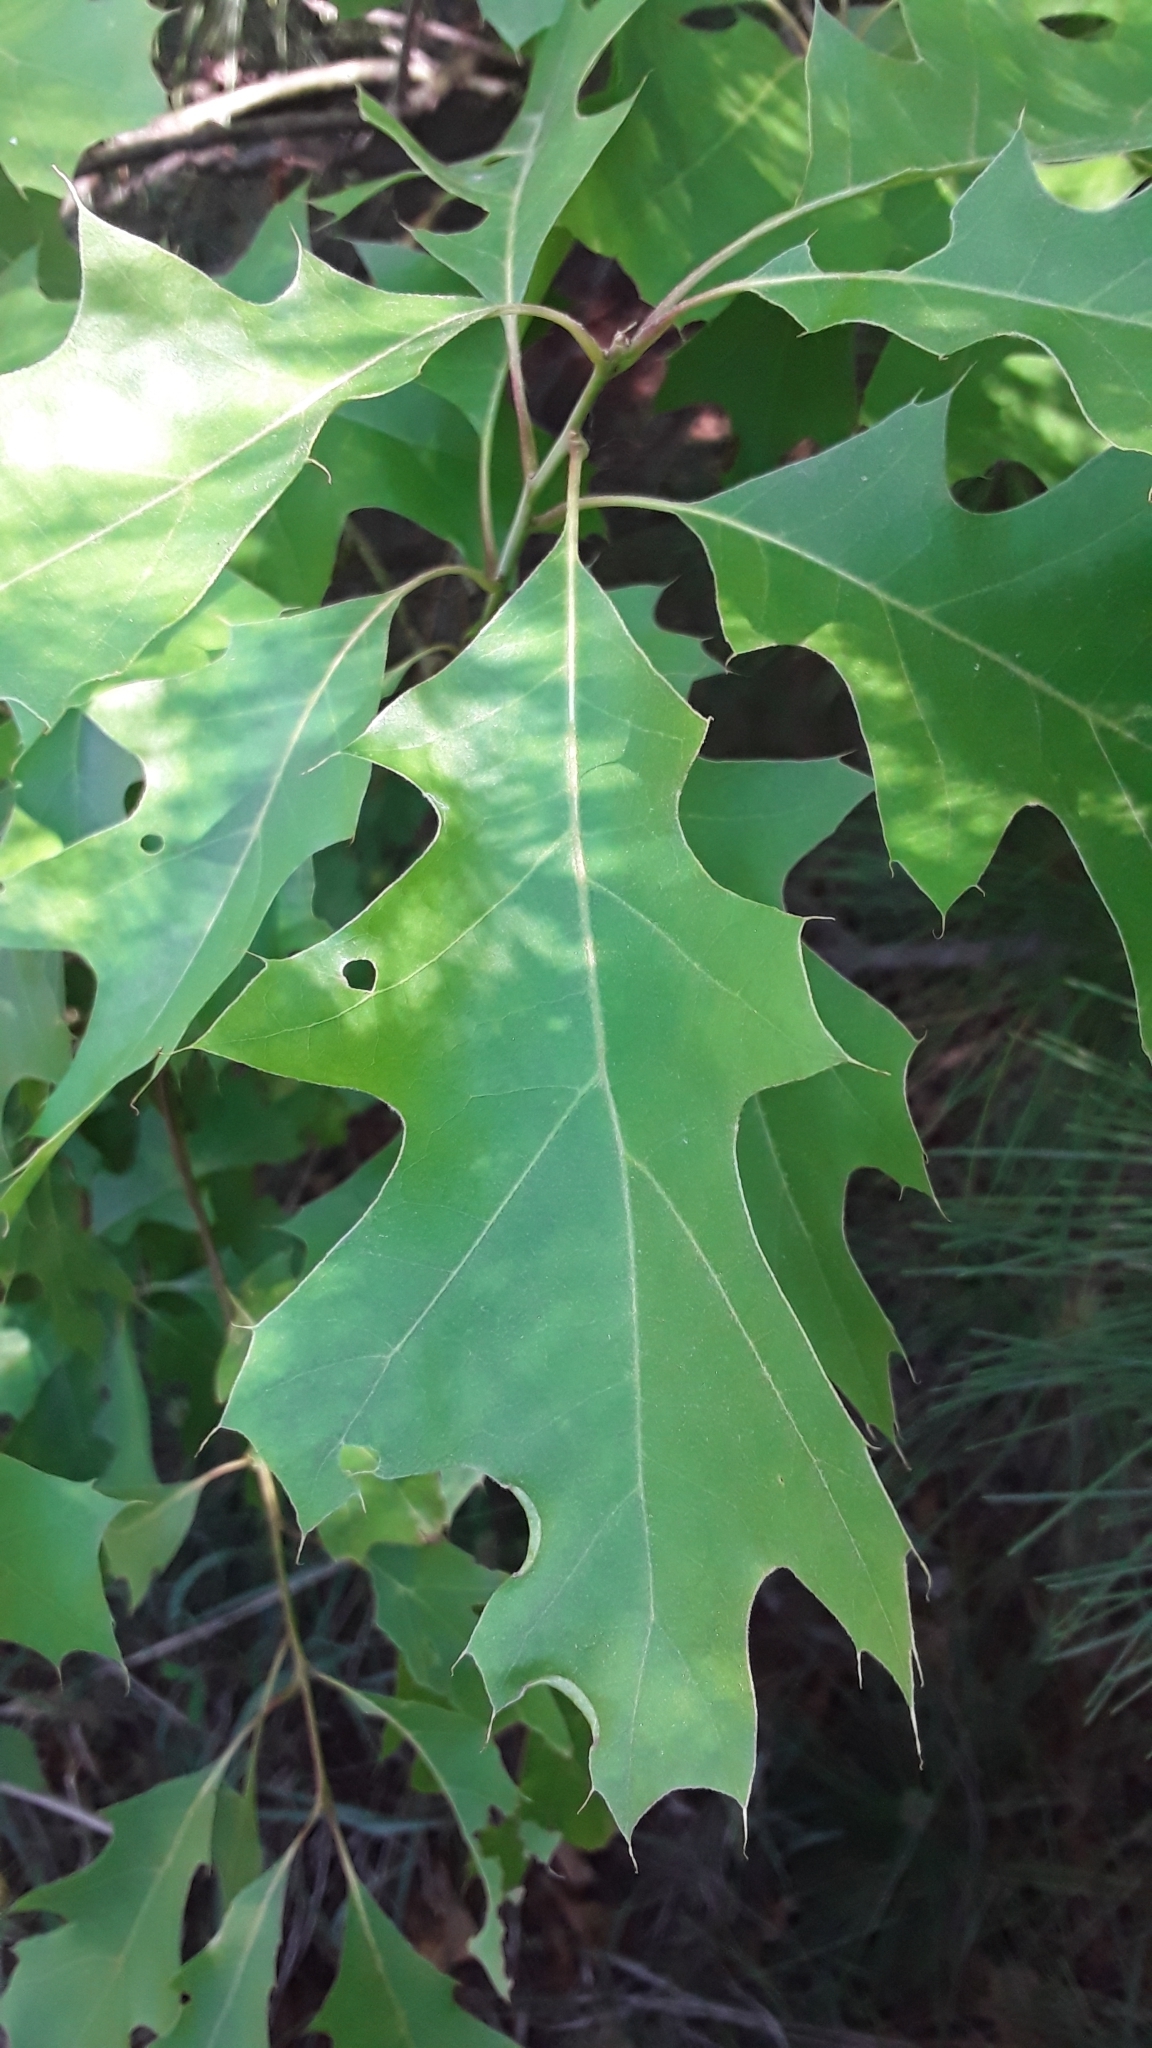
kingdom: Plantae
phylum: Tracheophyta
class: Magnoliopsida
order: Fagales
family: Fagaceae
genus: Quercus
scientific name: Quercus rubra
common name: Red oak
